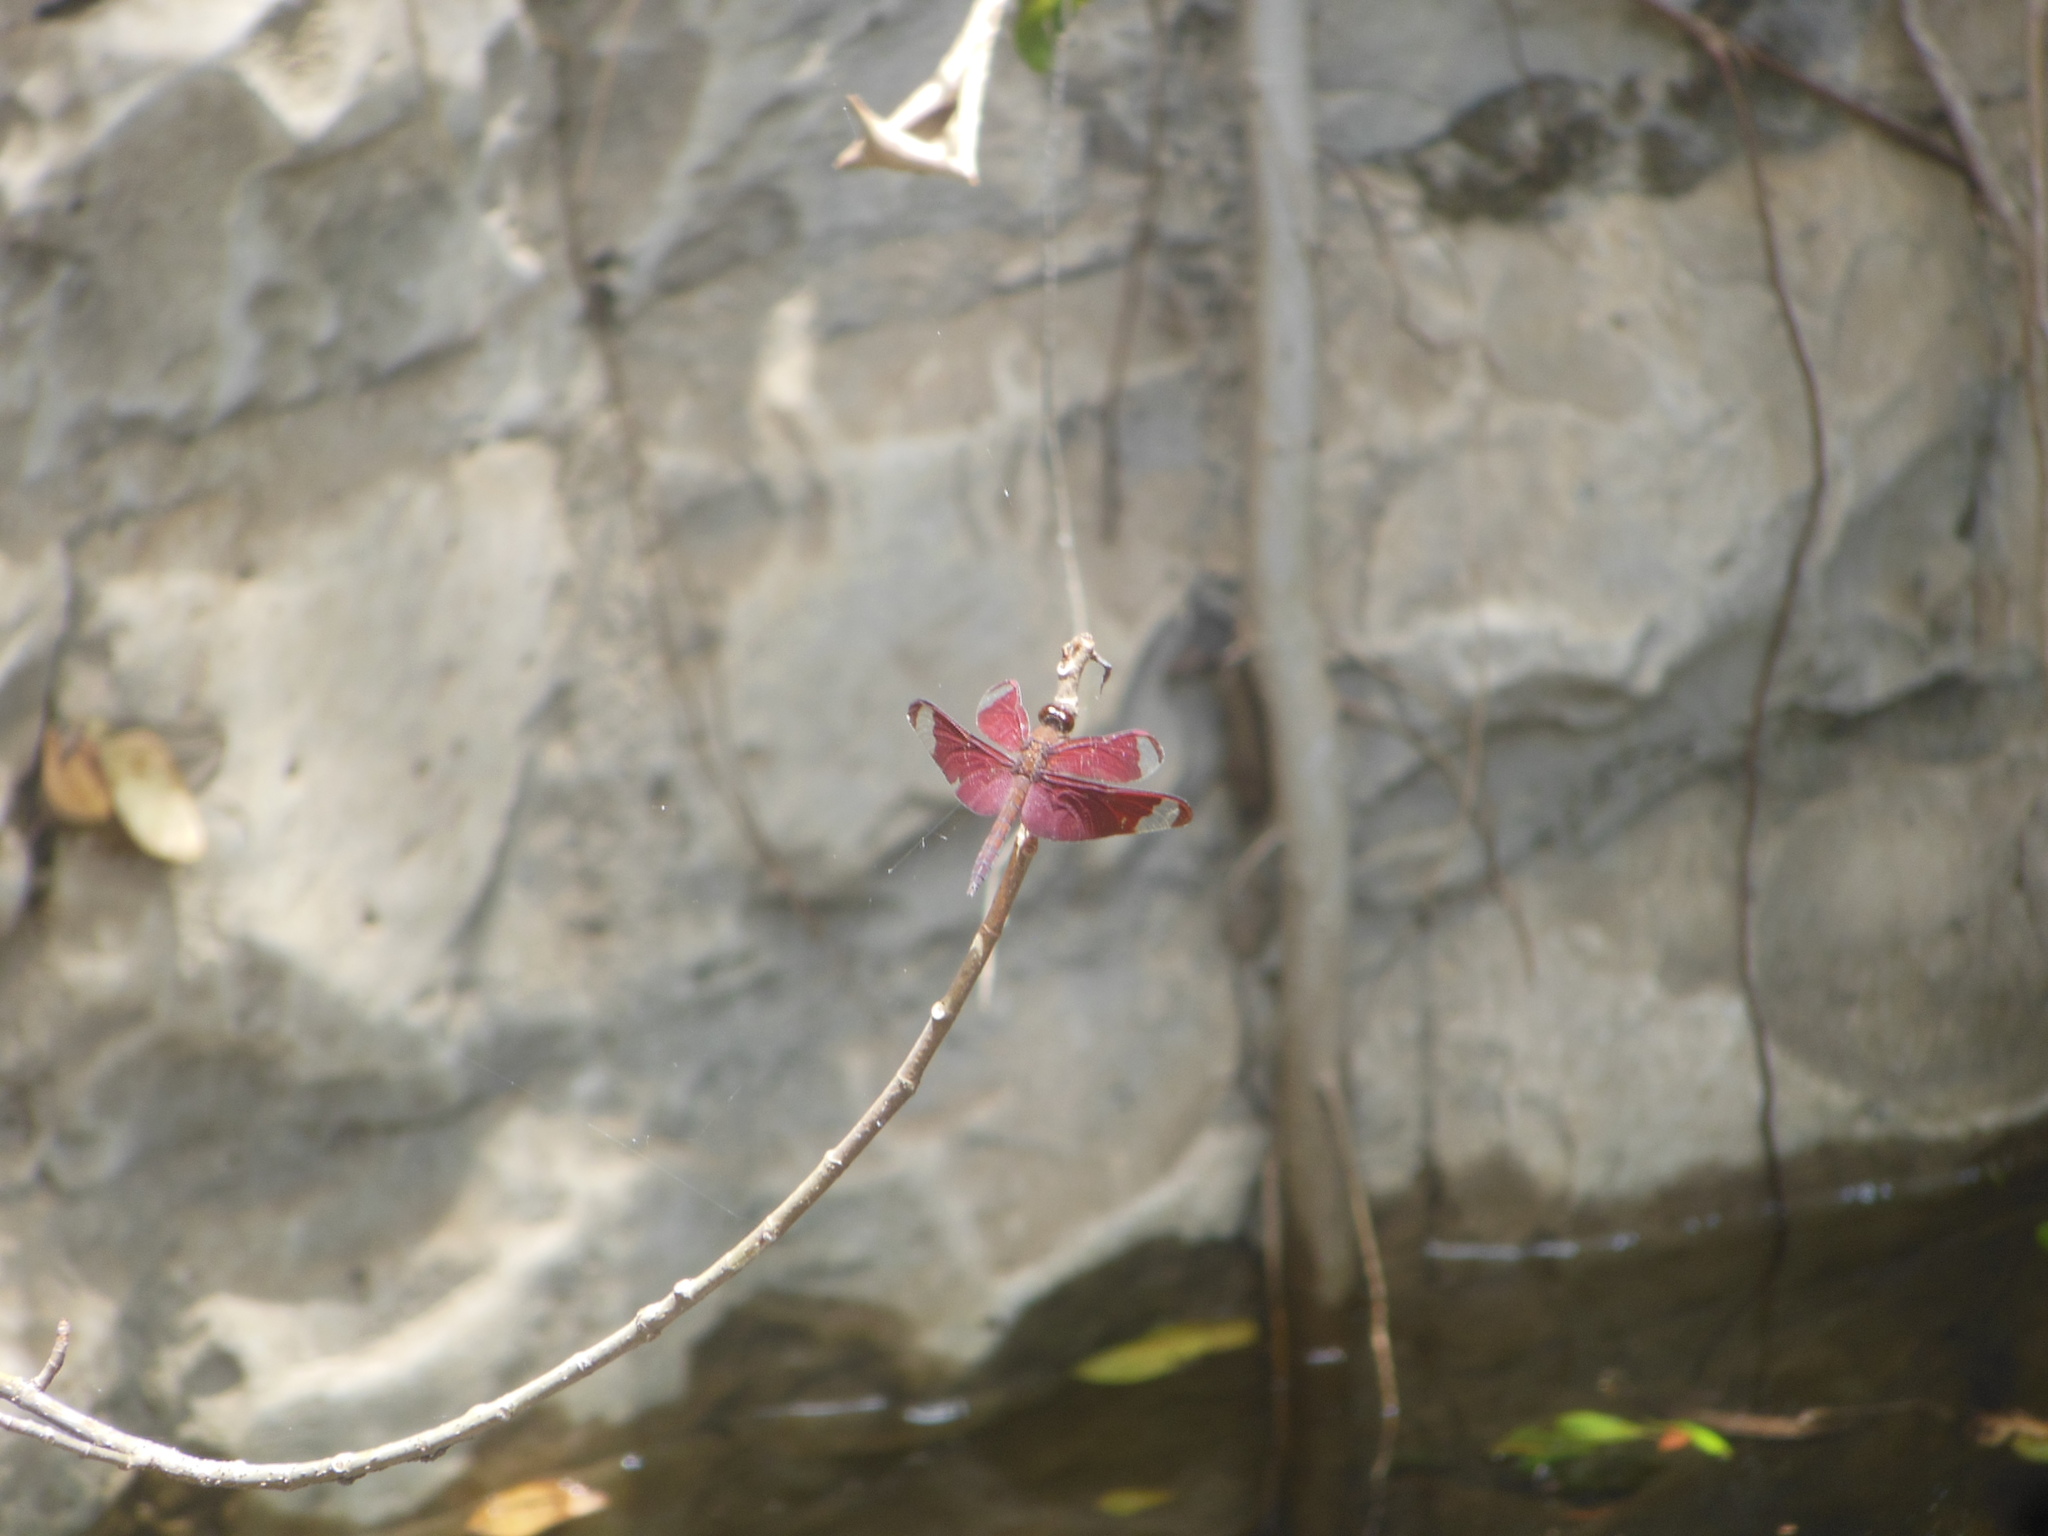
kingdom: Animalia
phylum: Arthropoda
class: Insecta
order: Odonata
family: Libellulidae
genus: Neurothemis
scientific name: Neurothemis fulvia
